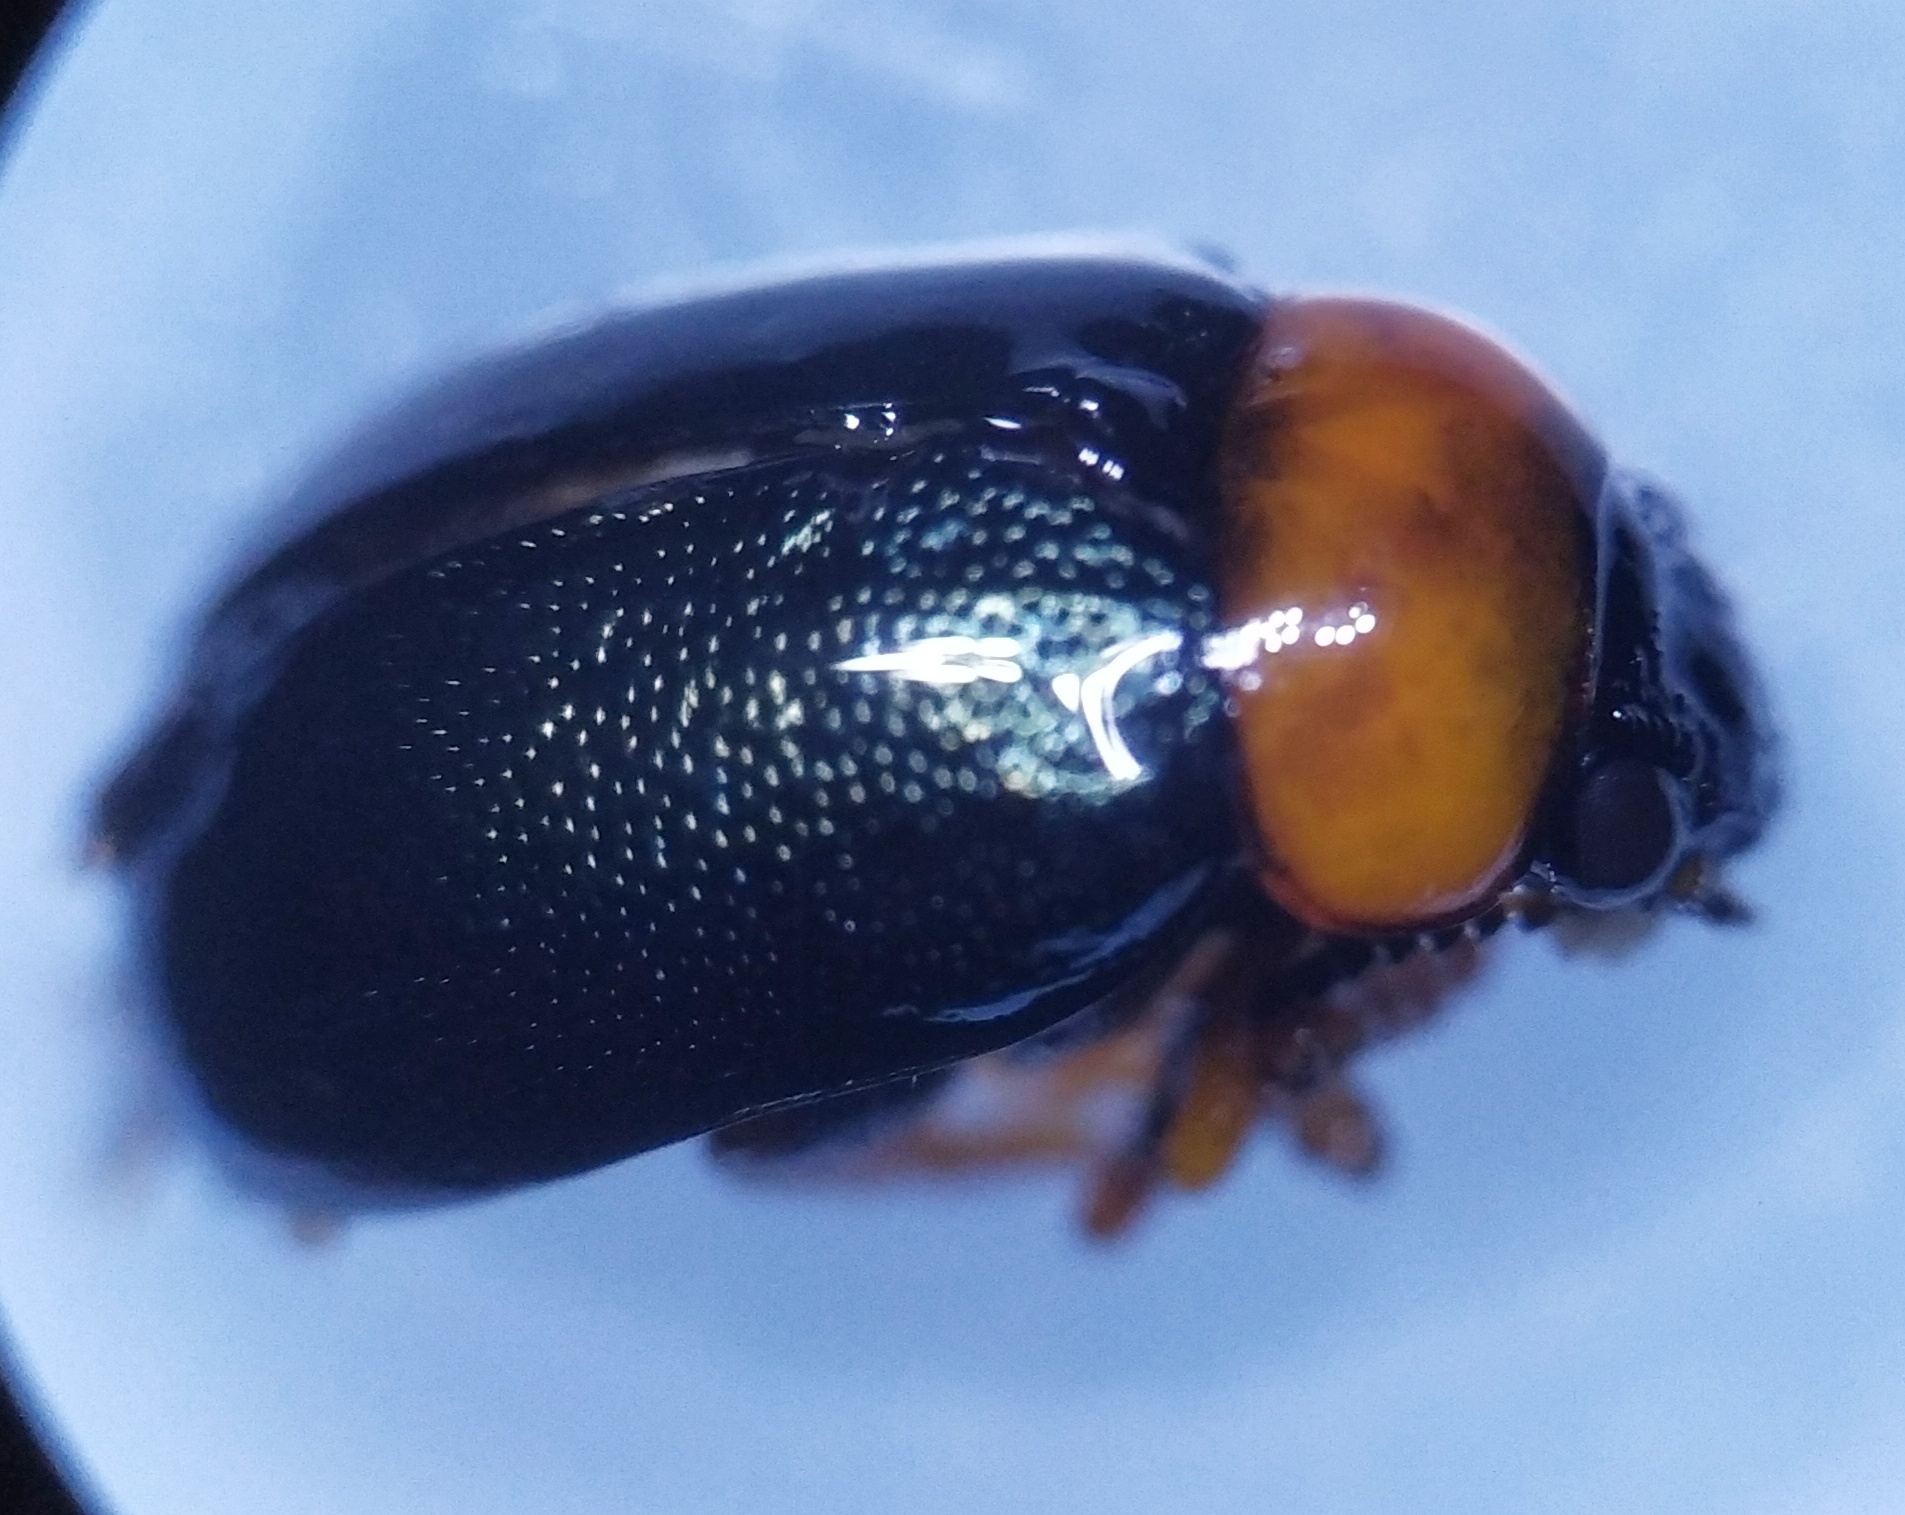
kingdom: Animalia
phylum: Arthropoda
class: Insecta
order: Coleoptera
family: Chrysomelidae
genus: Smaragdina
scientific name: Smaragdina salicina
